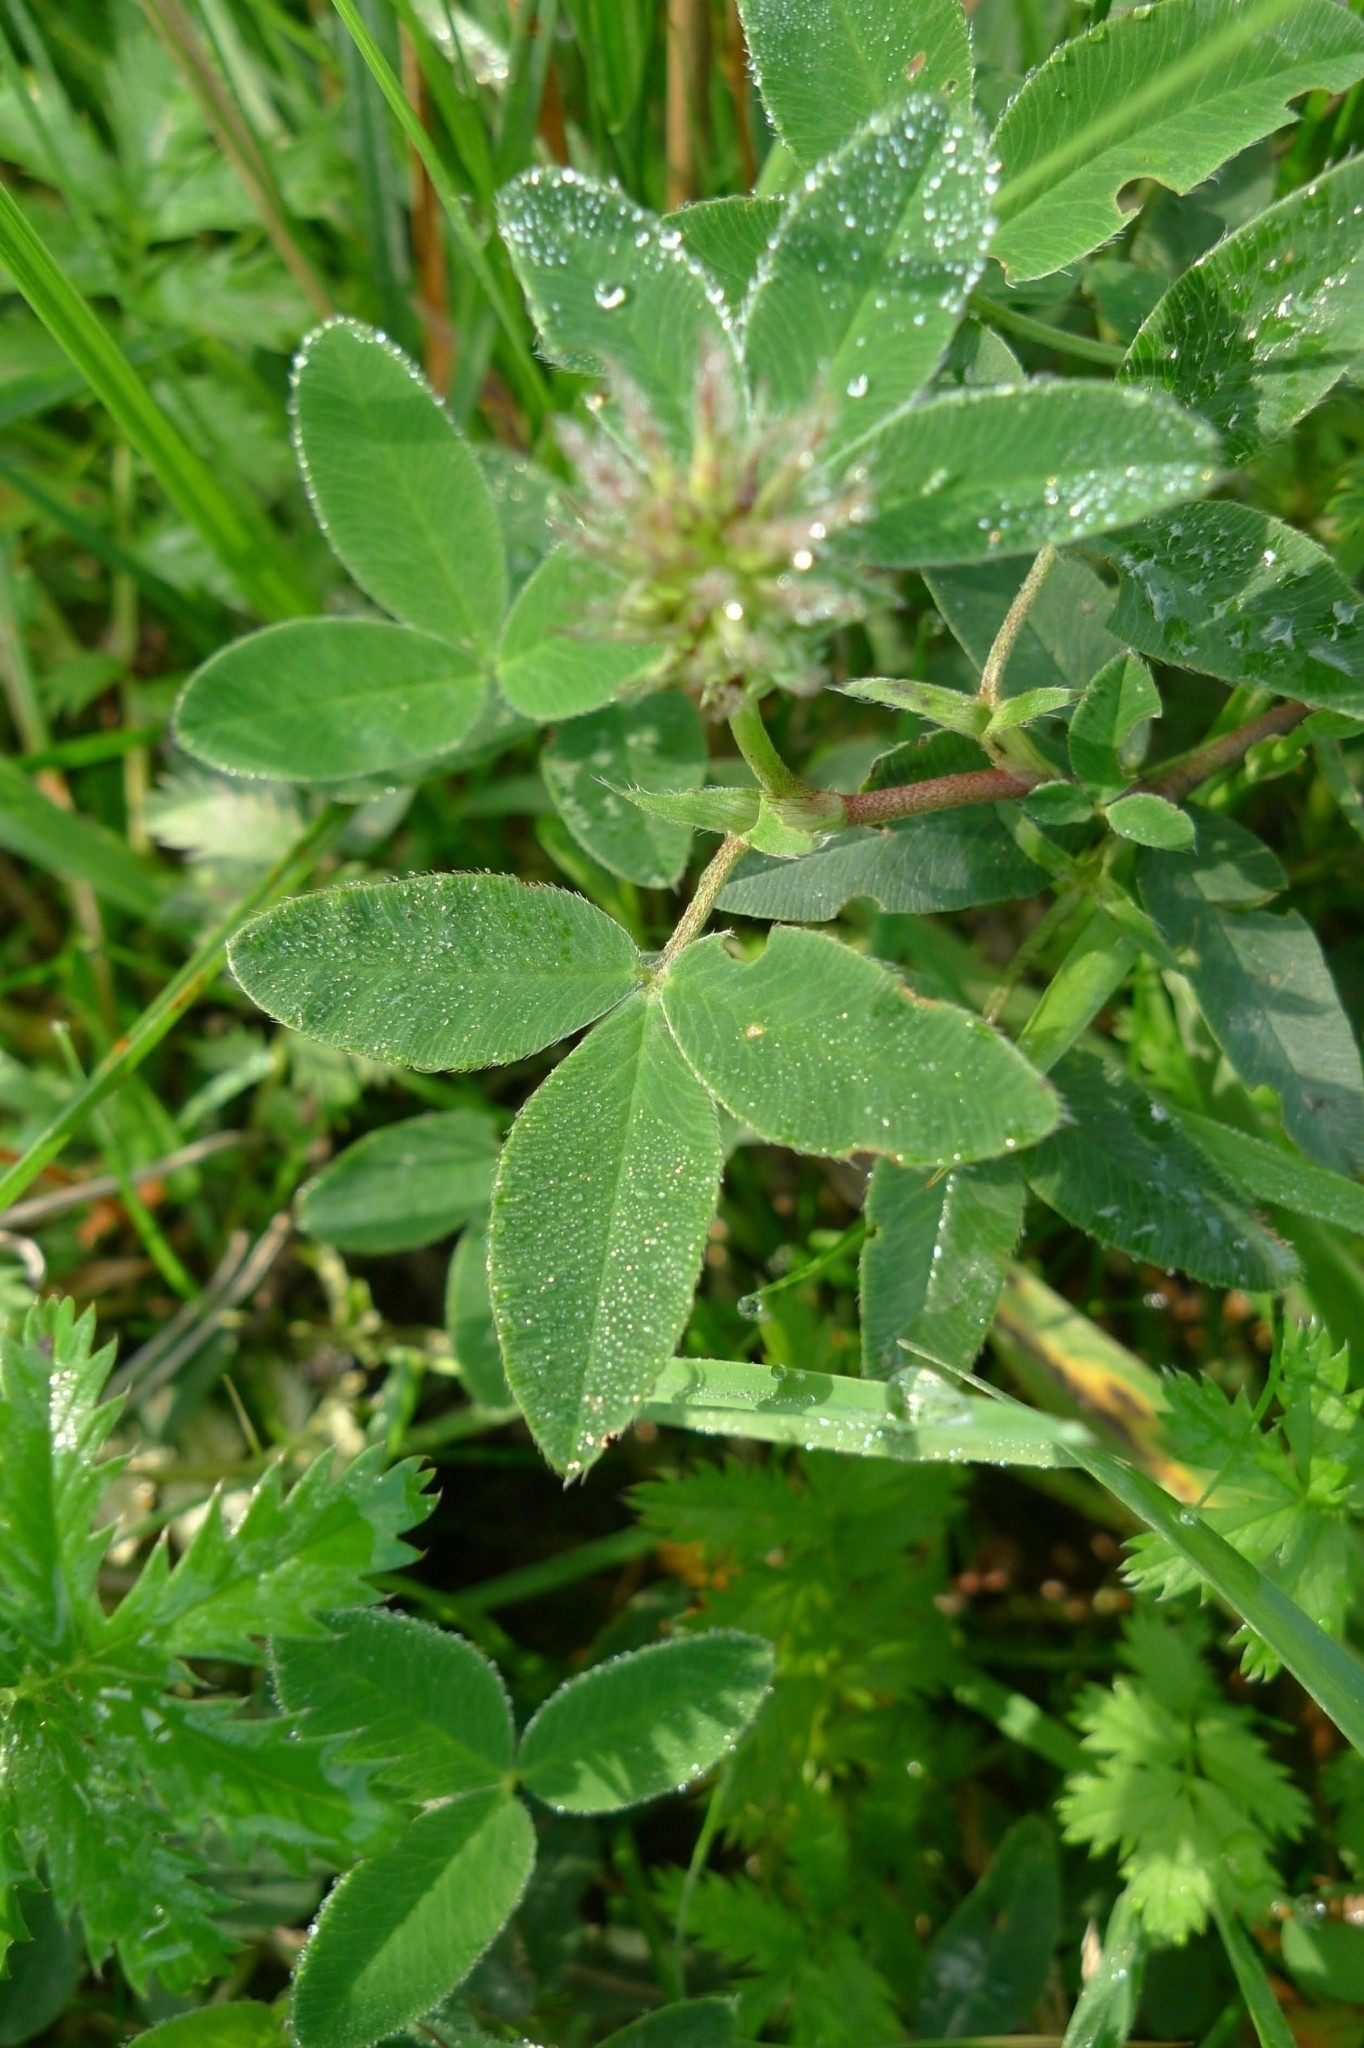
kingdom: Plantae
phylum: Tracheophyta
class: Magnoliopsida
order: Fabales
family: Fabaceae
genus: Trifolium
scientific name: Trifolium medium
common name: Zigzag clover
